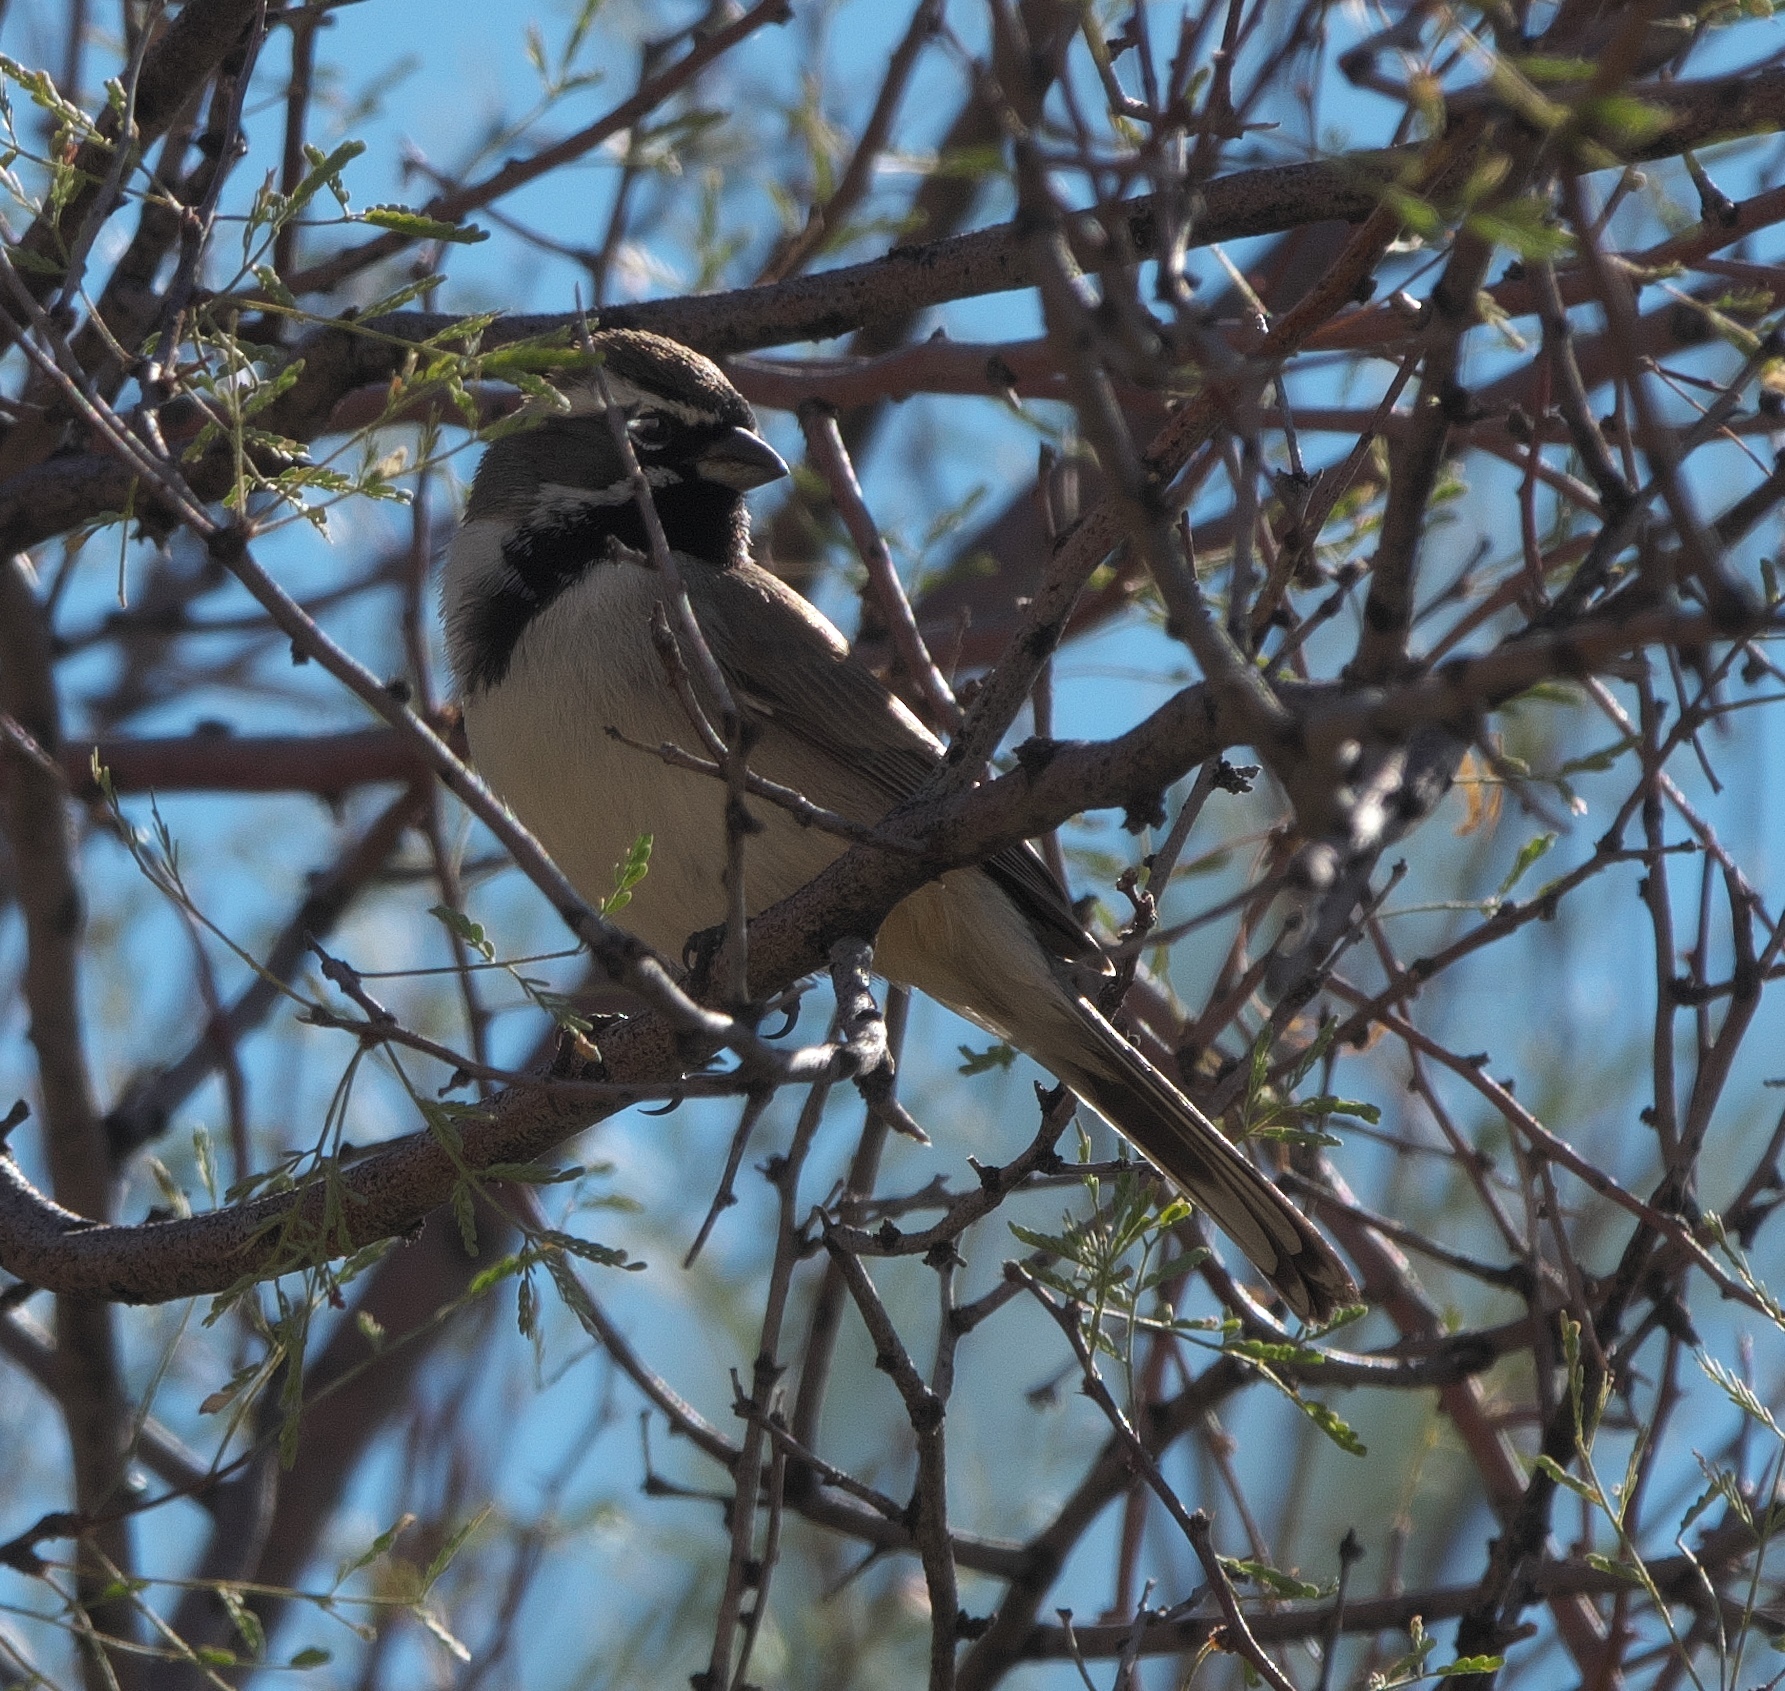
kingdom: Animalia
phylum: Chordata
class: Aves
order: Passeriformes
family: Passerellidae
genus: Amphispiza
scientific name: Amphispiza bilineata
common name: Black-throated sparrow
